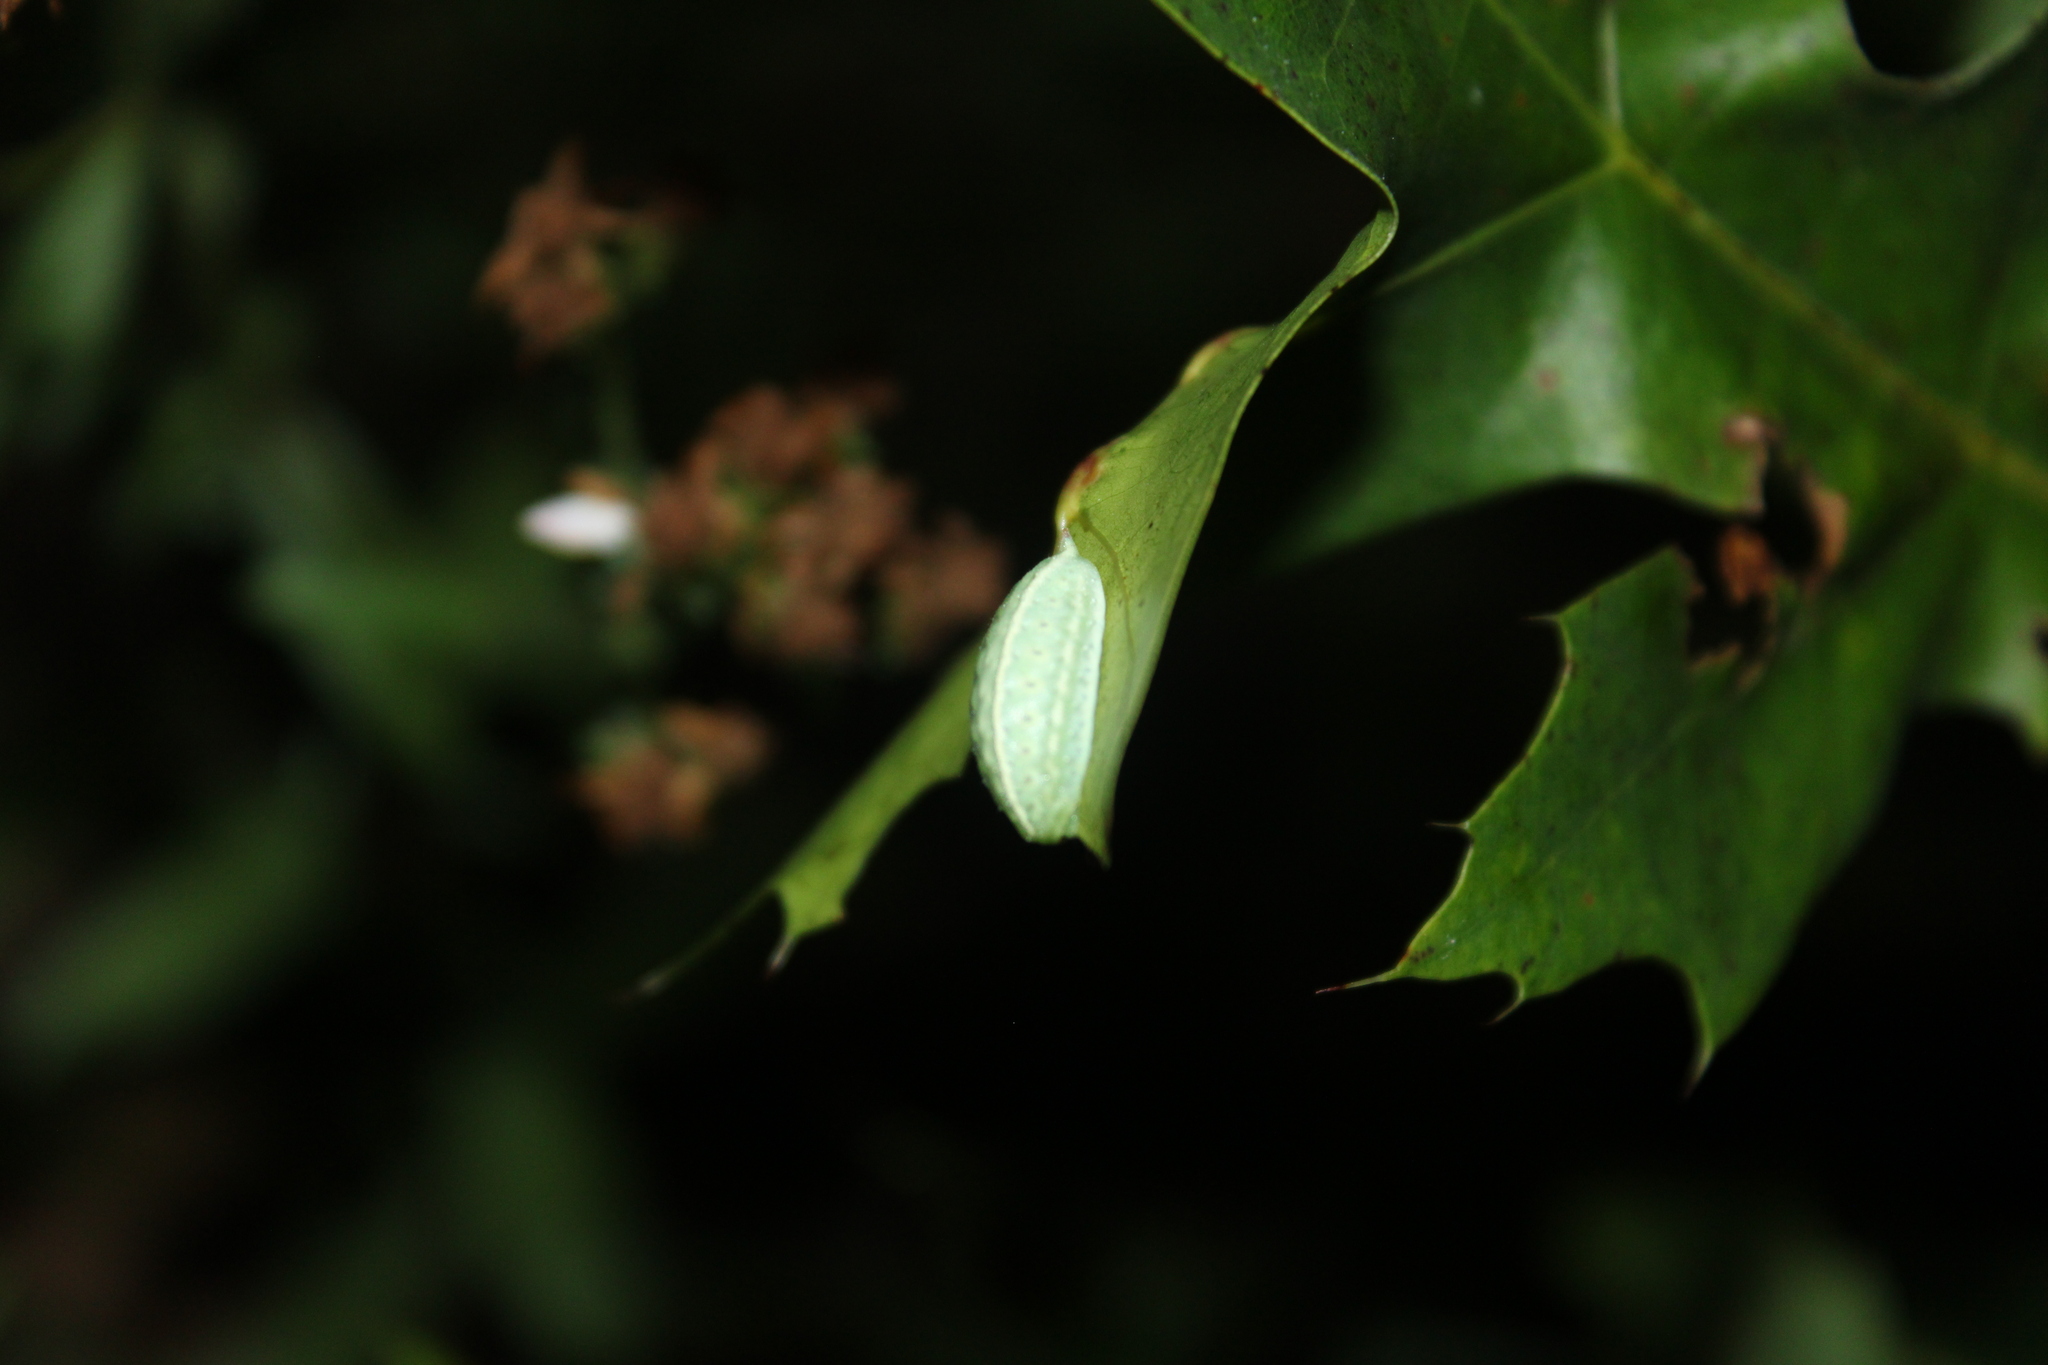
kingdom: Animalia
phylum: Arthropoda
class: Insecta
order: Lepidoptera
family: Limacodidae
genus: Packardia
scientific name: Packardia geminata
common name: Jeweled tailed slug moth
